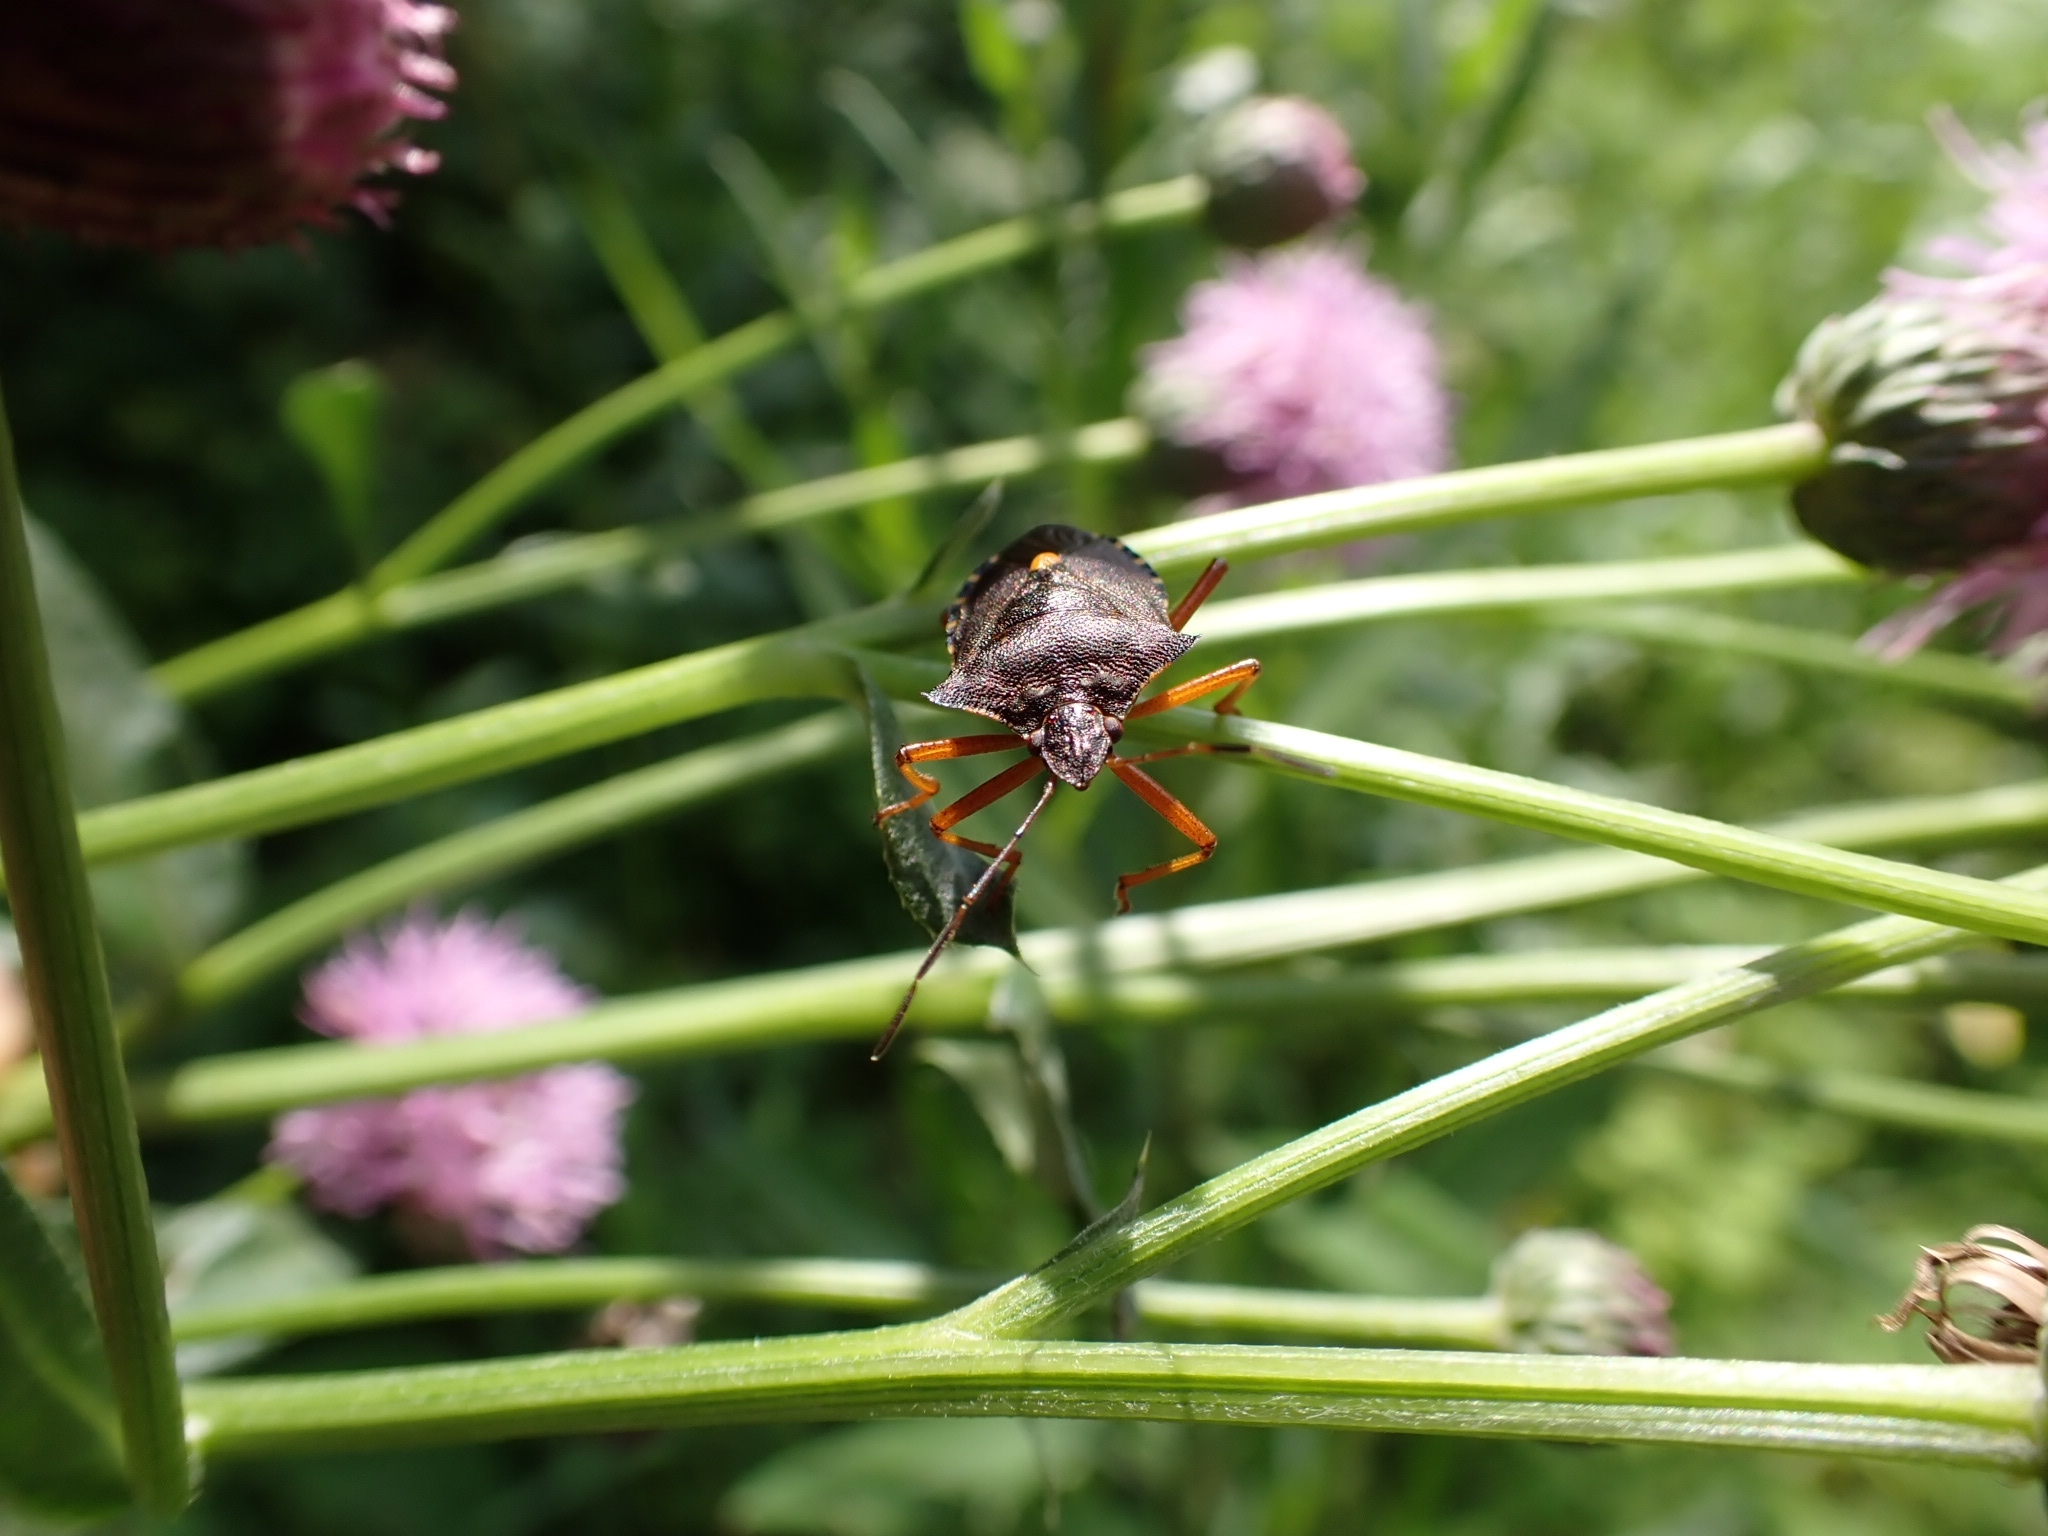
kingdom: Animalia
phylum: Arthropoda
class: Insecta
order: Hemiptera
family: Pentatomidae
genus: Pentatoma
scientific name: Pentatoma rufipes
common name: Forest bug
